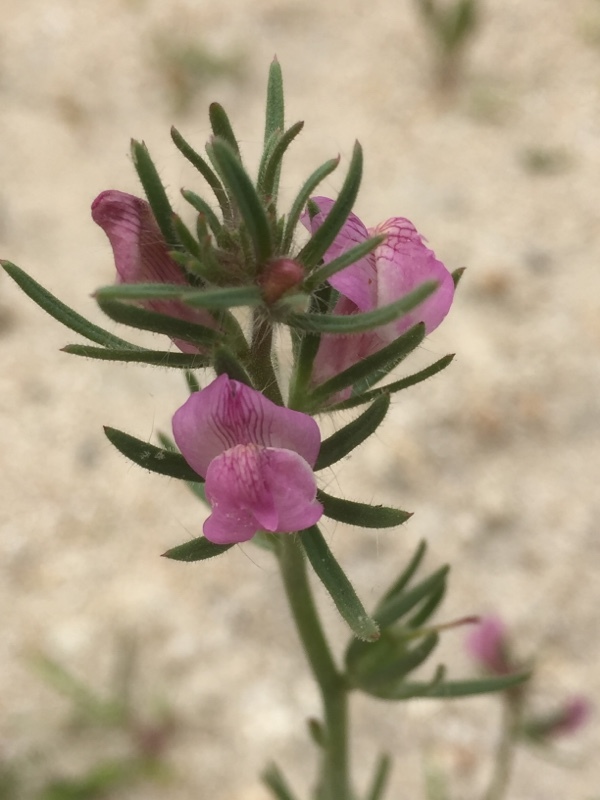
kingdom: Plantae
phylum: Tracheophyta
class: Magnoliopsida
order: Lamiales
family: Plantaginaceae
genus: Misopates
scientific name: Misopates orontium
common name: Weasel's-snout
